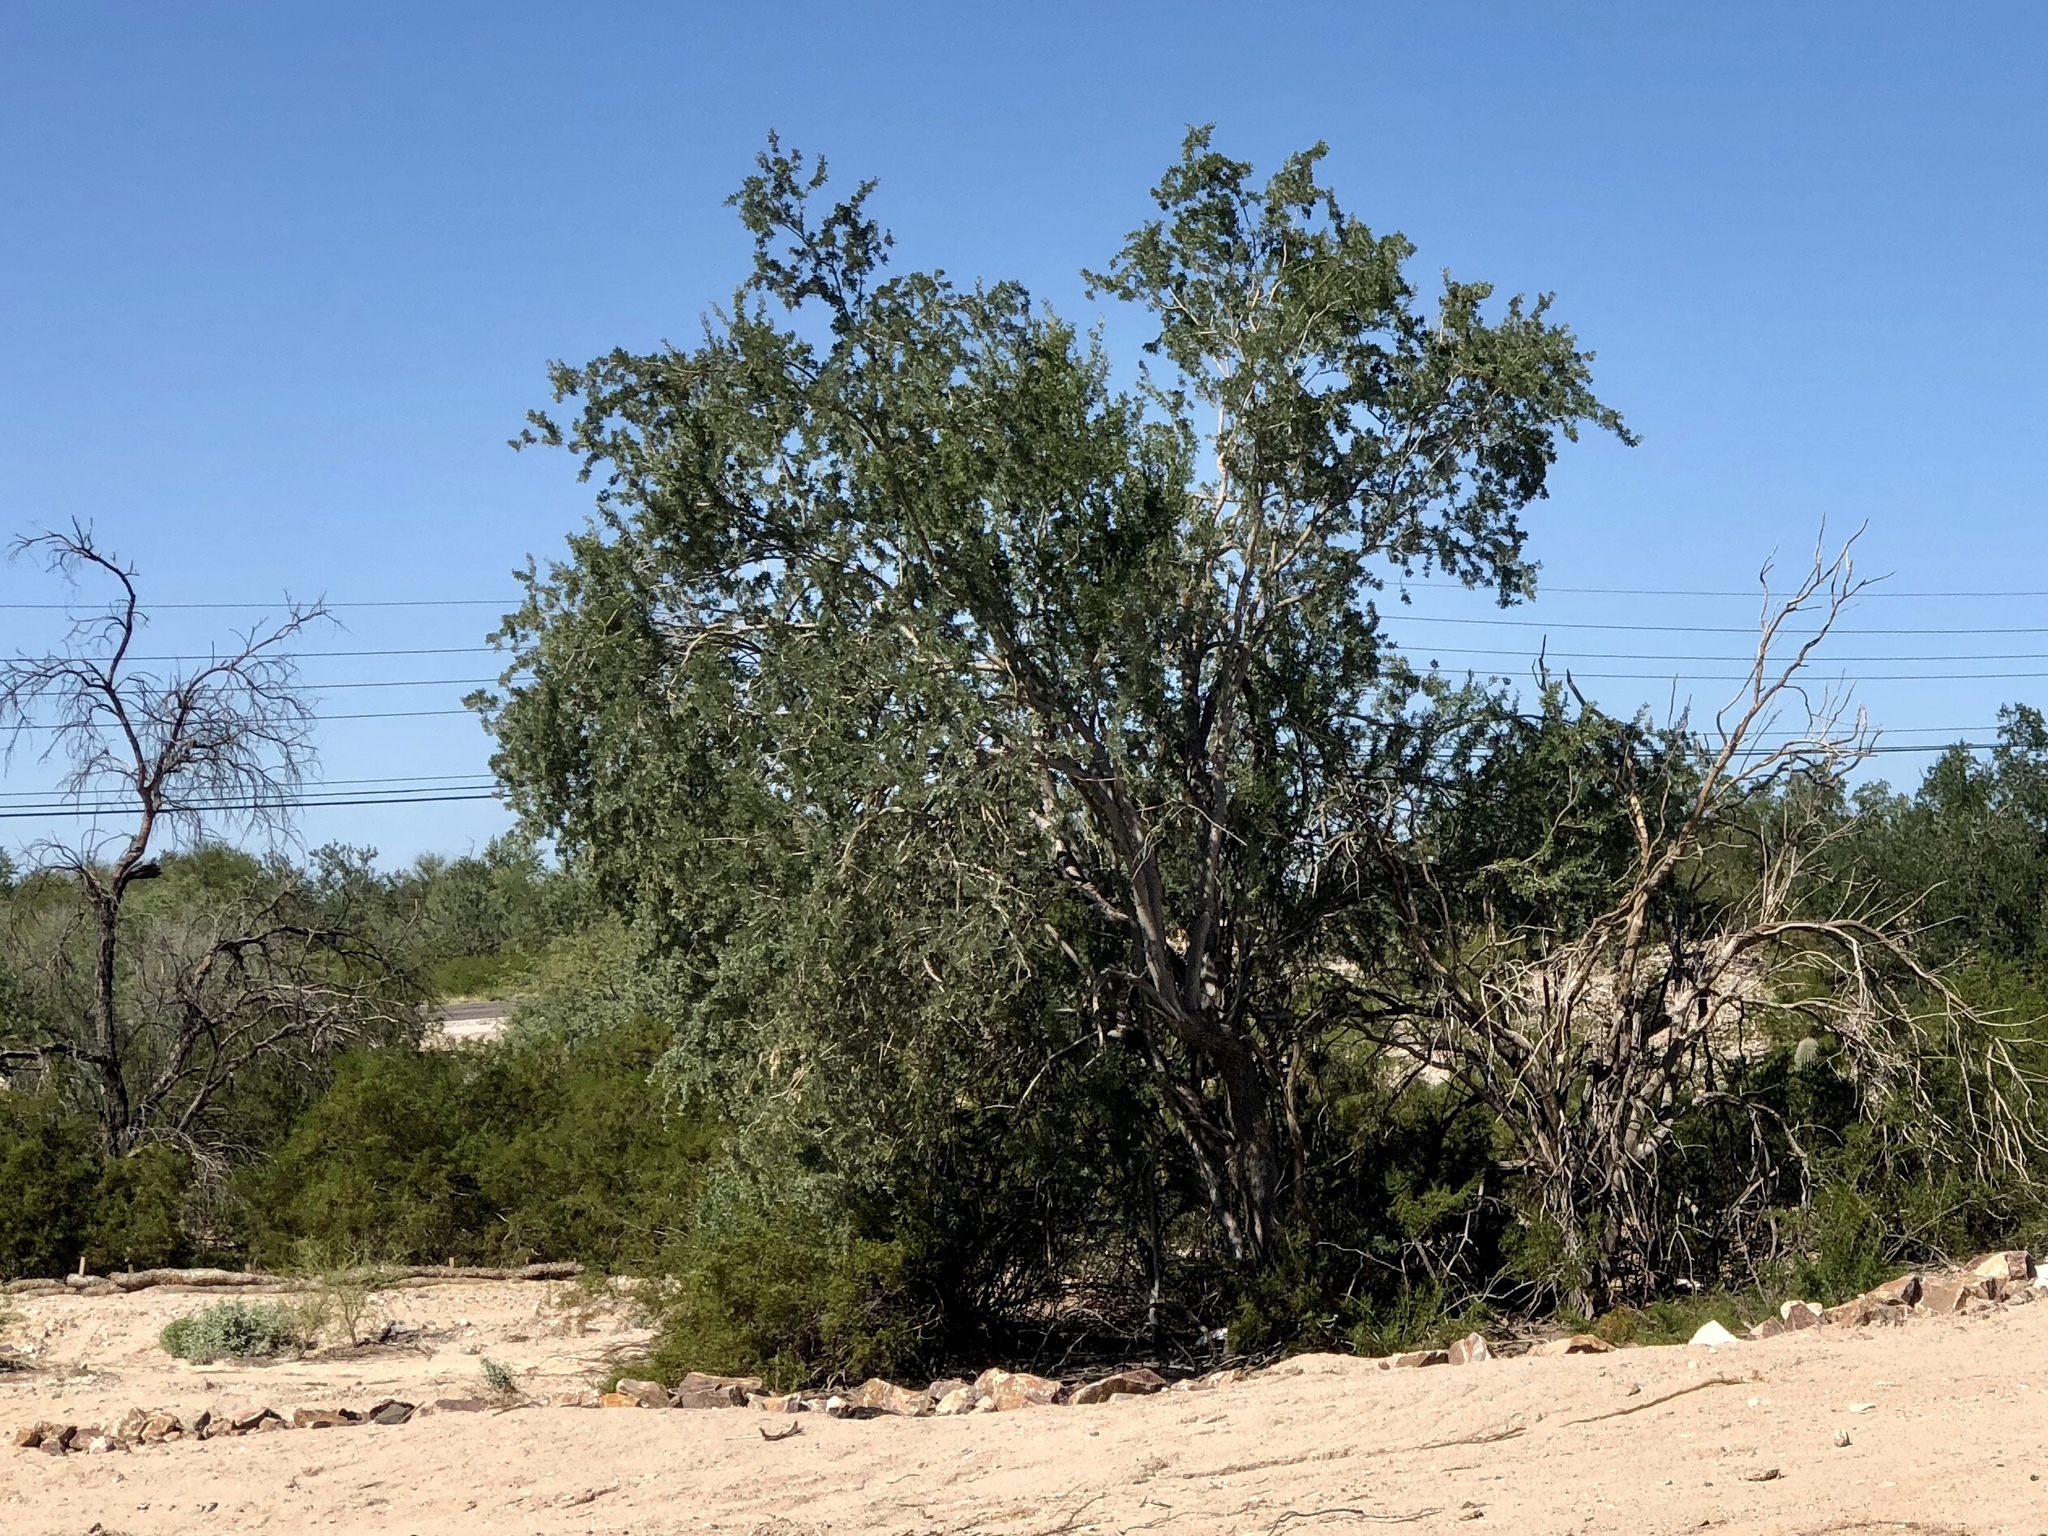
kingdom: Plantae
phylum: Tracheophyta
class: Magnoliopsida
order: Fabales
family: Fabaceae
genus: Olneya
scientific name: Olneya tesota
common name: Desert ironwood
